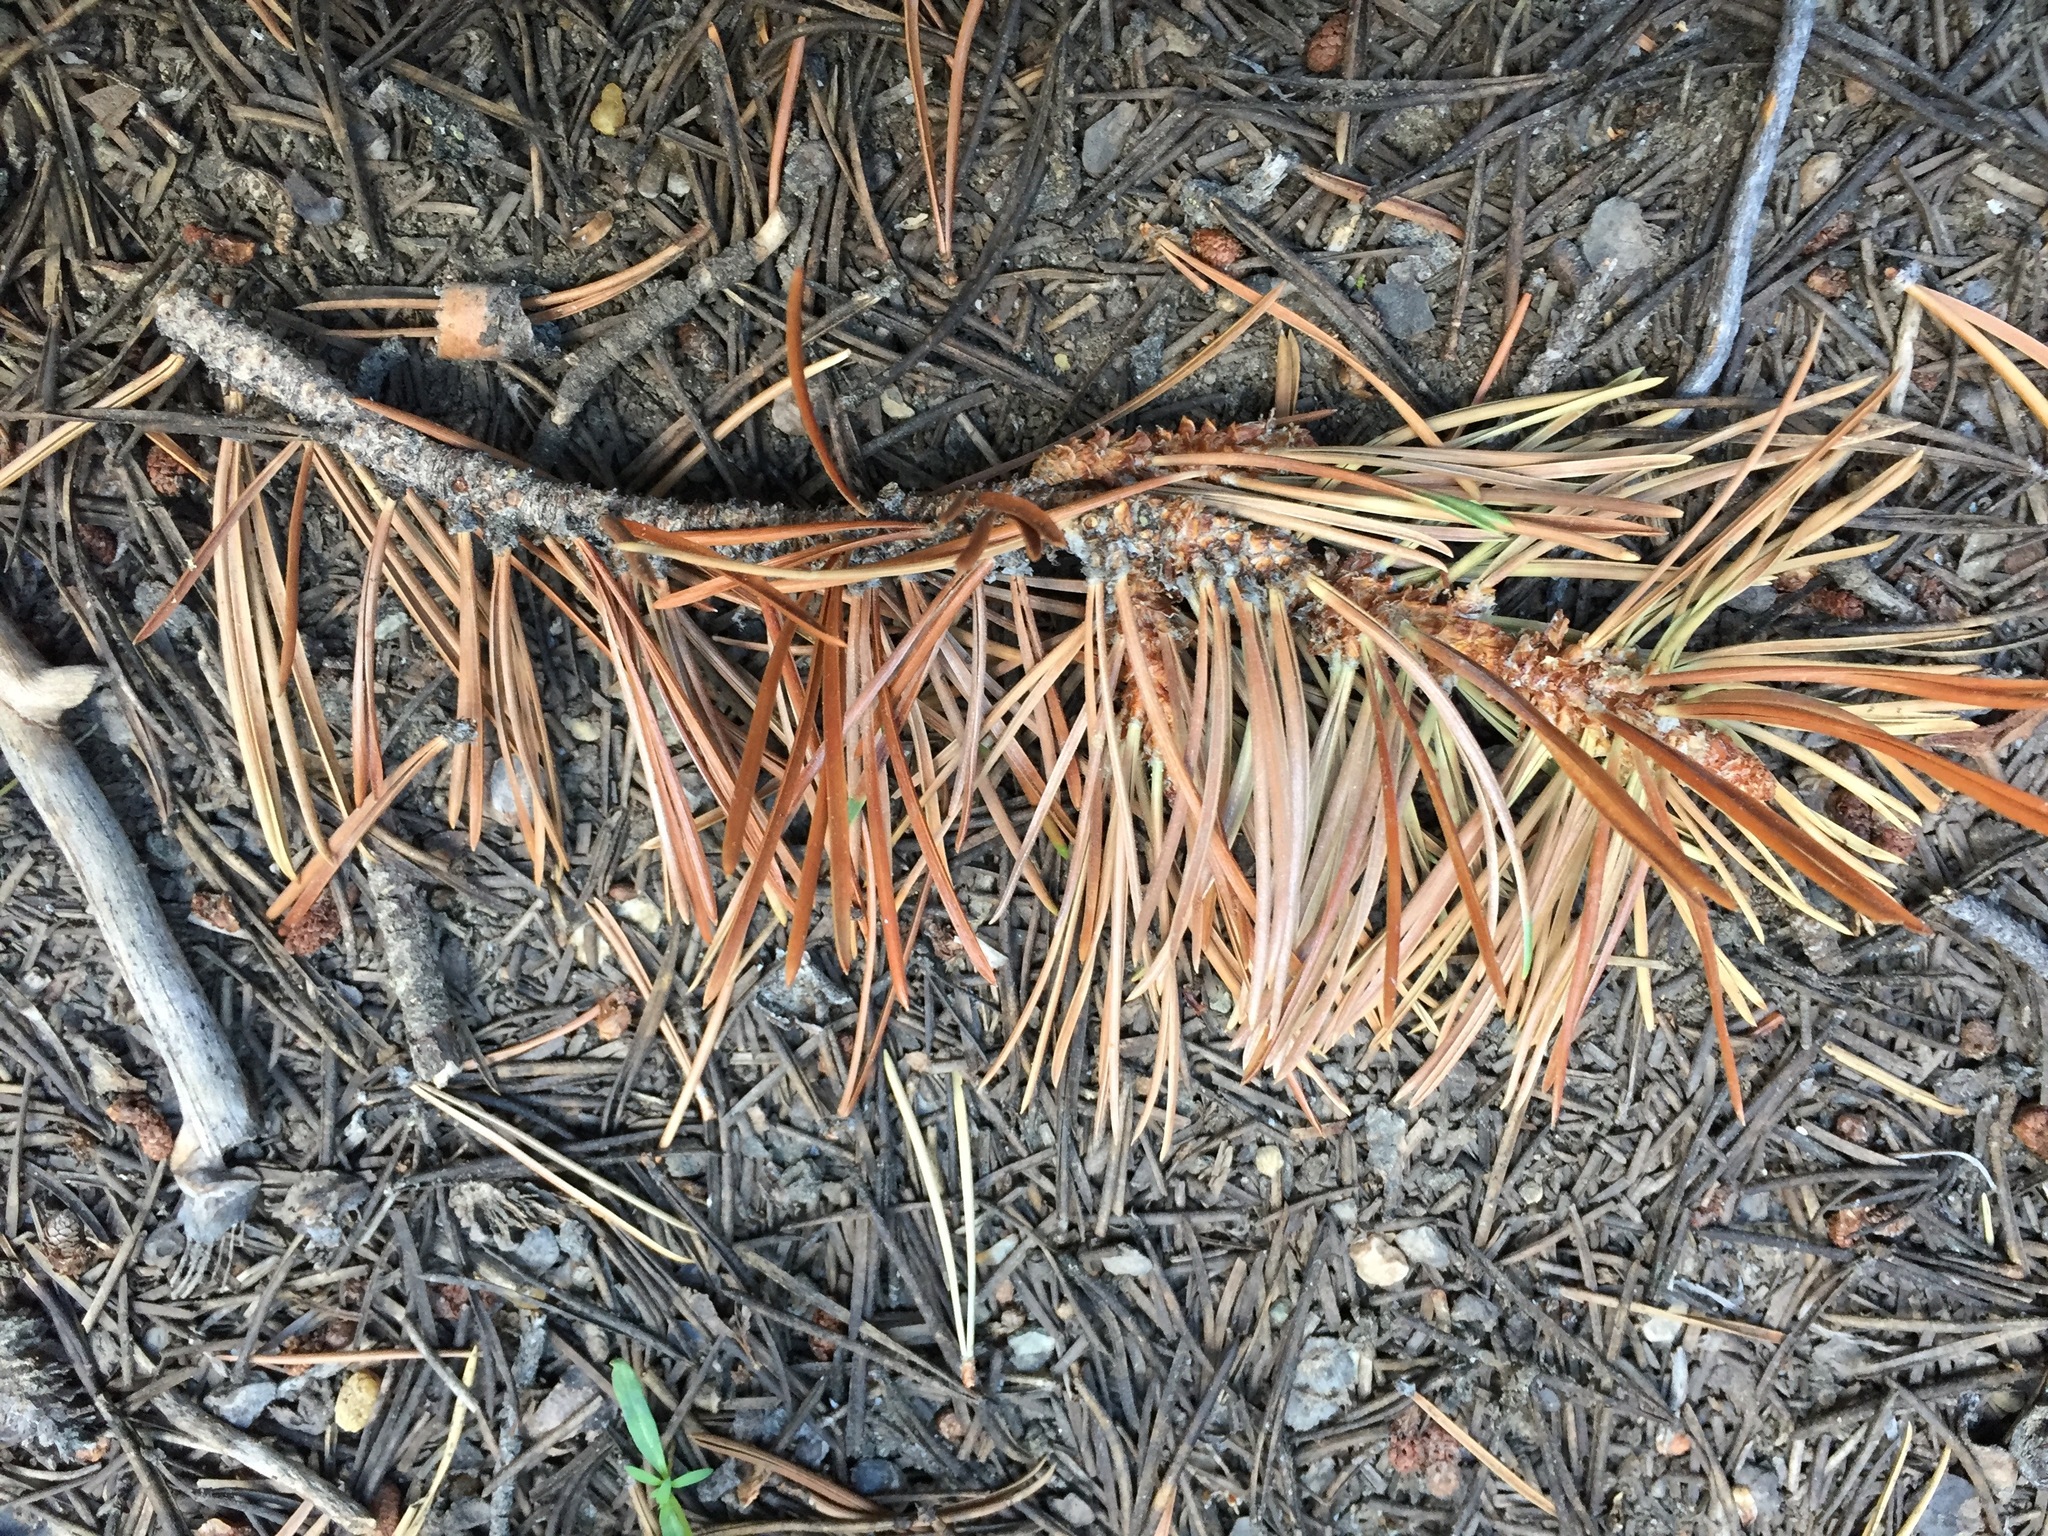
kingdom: Plantae
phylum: Tracheophyta
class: Pinopsida
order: Pinales
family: Pinaceae
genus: Pinus
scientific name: Pinus contorta
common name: Lodgepole pine
